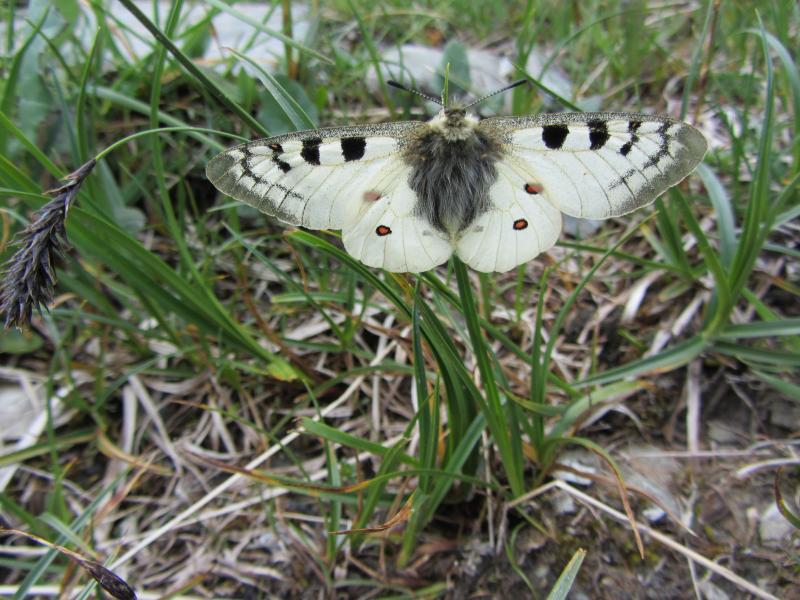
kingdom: Animalia
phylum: Arthropoda
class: Insecta
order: Lepidoptera
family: Papilionidae
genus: Parnassius
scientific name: Parnassius phoebus
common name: Small apollo
